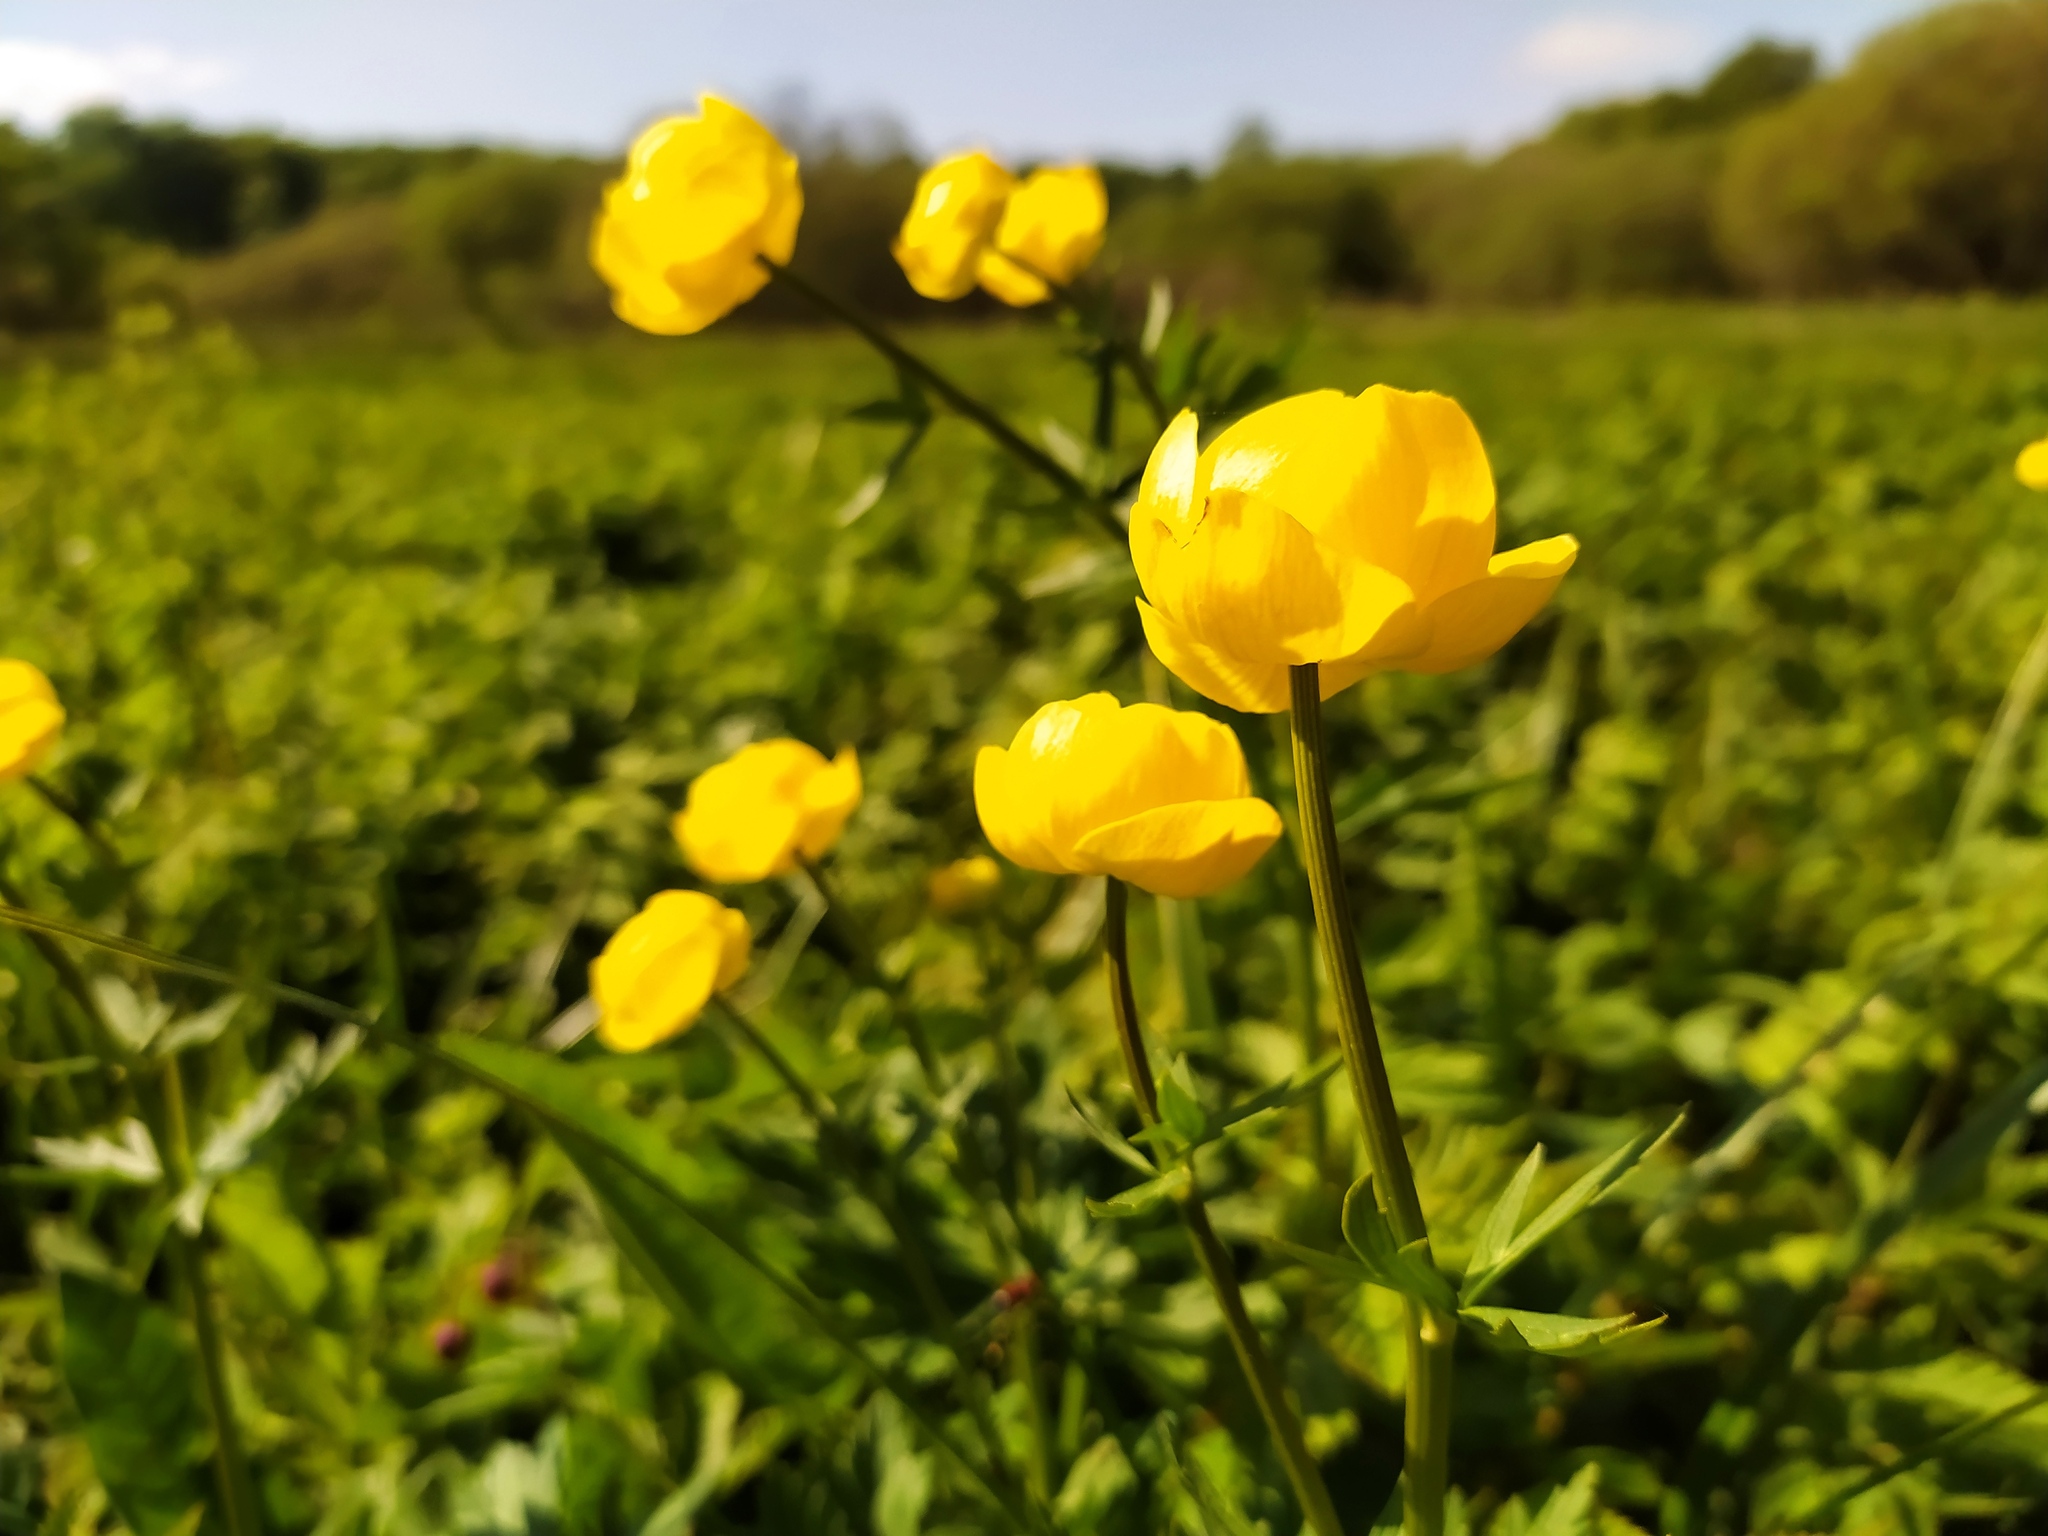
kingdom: Plantae
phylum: Tracheophyta
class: Magnoliopsida
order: Ranunculales
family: Ranunculaceae
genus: Trollius
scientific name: Trollius europaeus
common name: European globeflower
